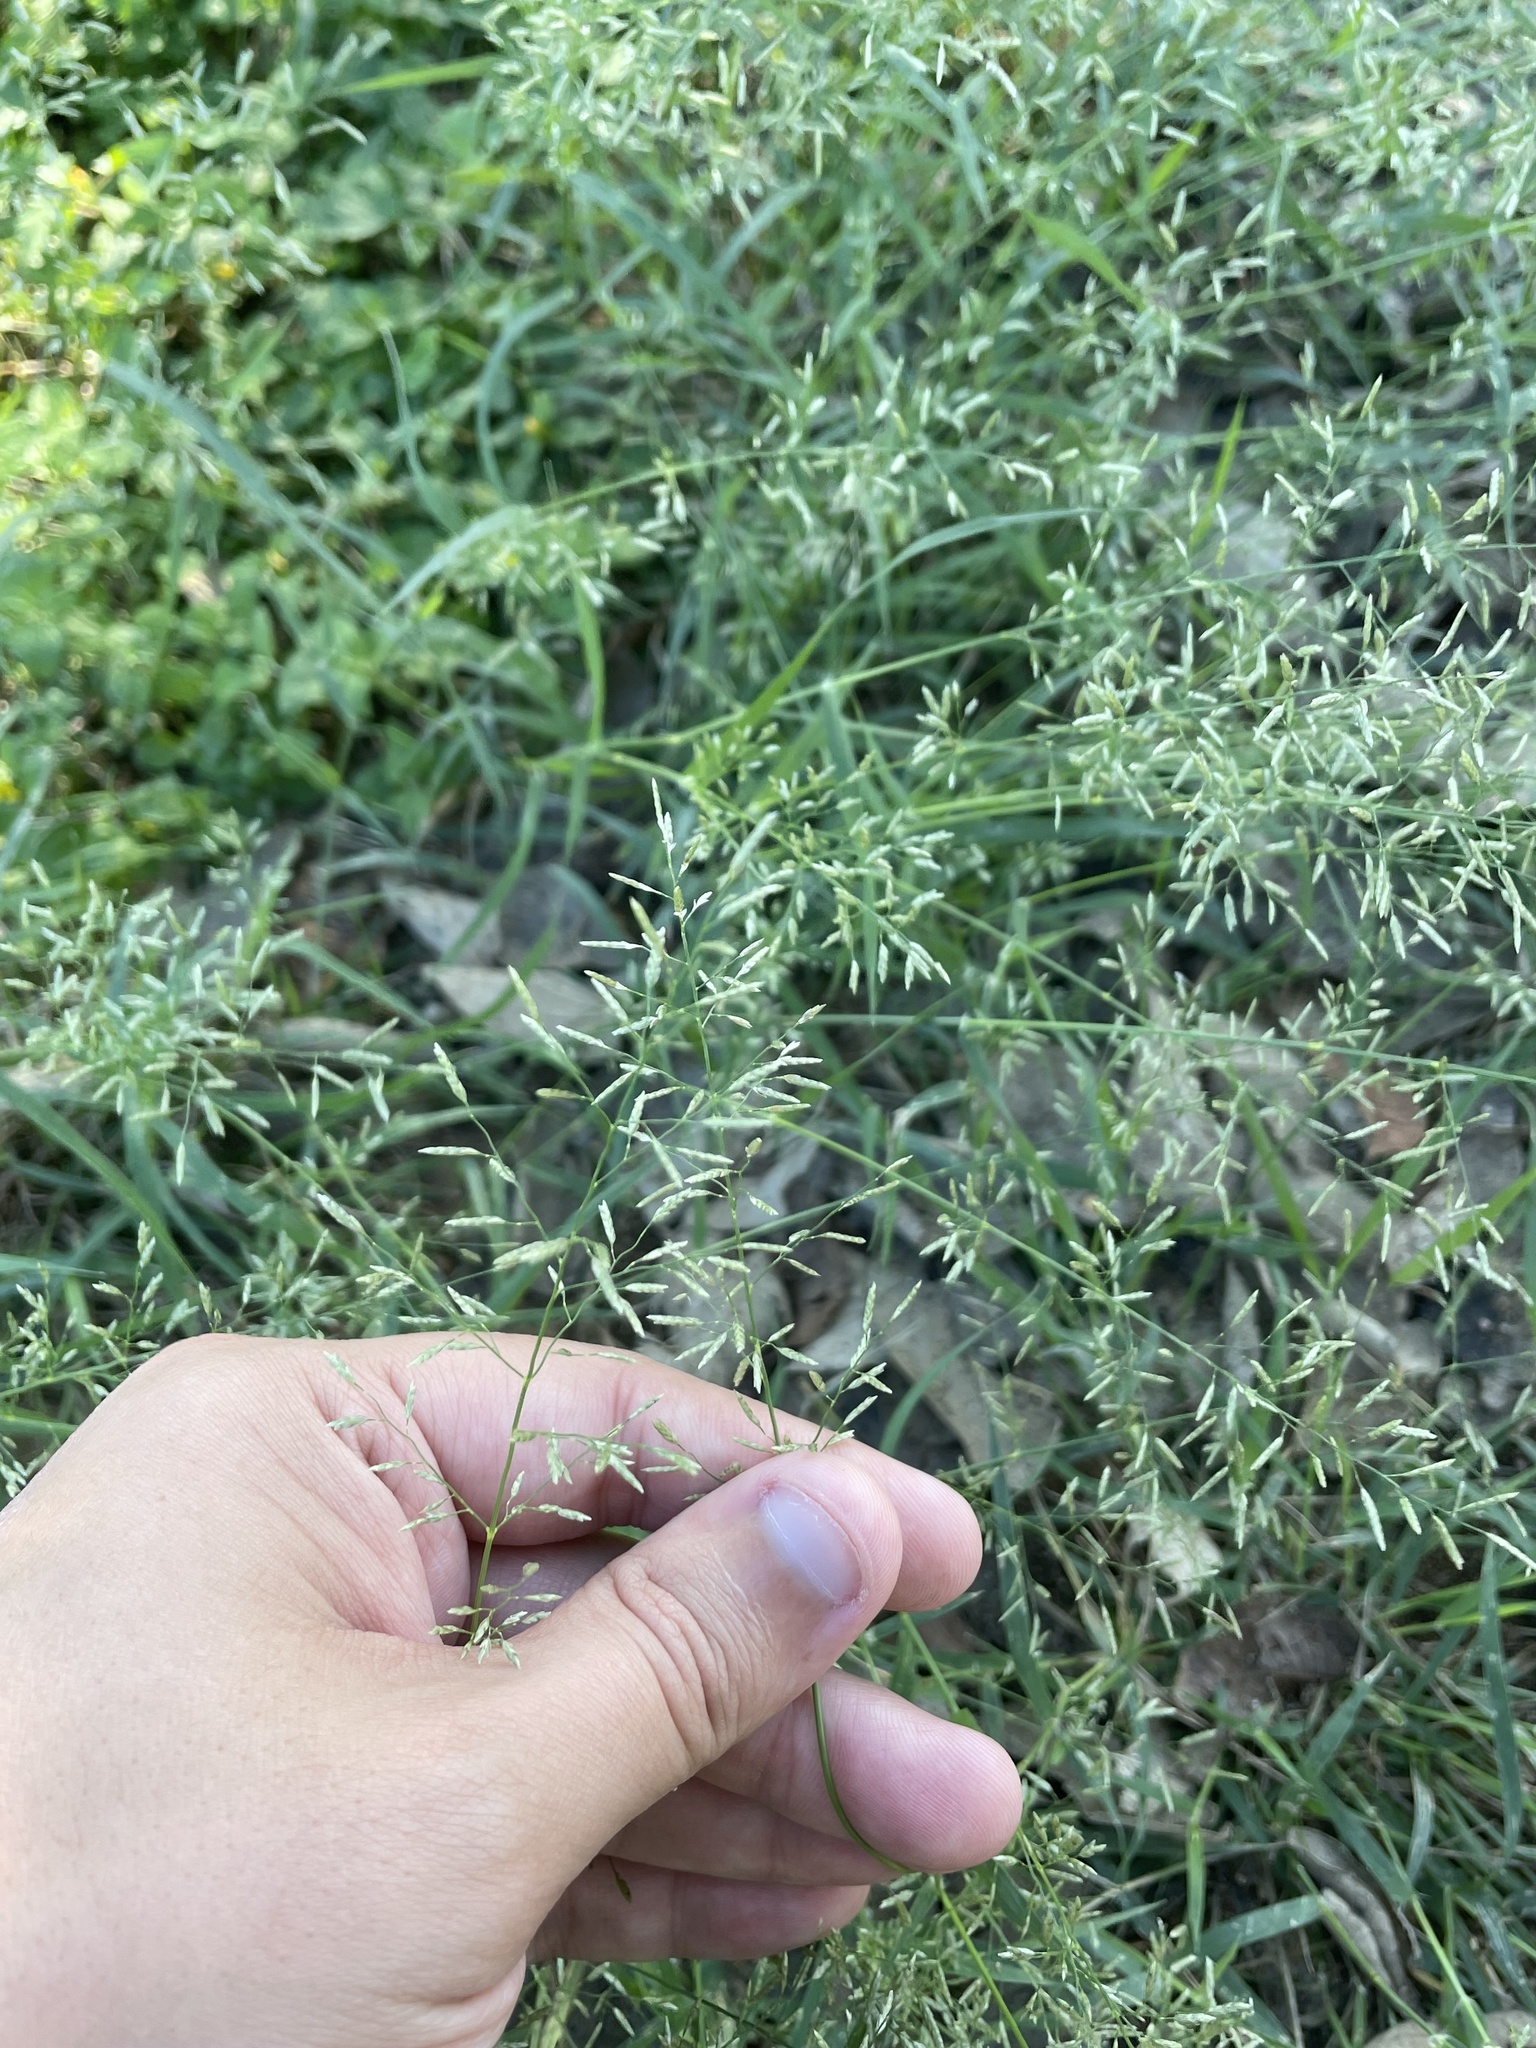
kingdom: Plantae
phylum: Tracheophyta
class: Liliopsida
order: Poales
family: Poaceae
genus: Eragrostis
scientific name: Eragrostis barrelieri
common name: Mediterranean lovegrass
